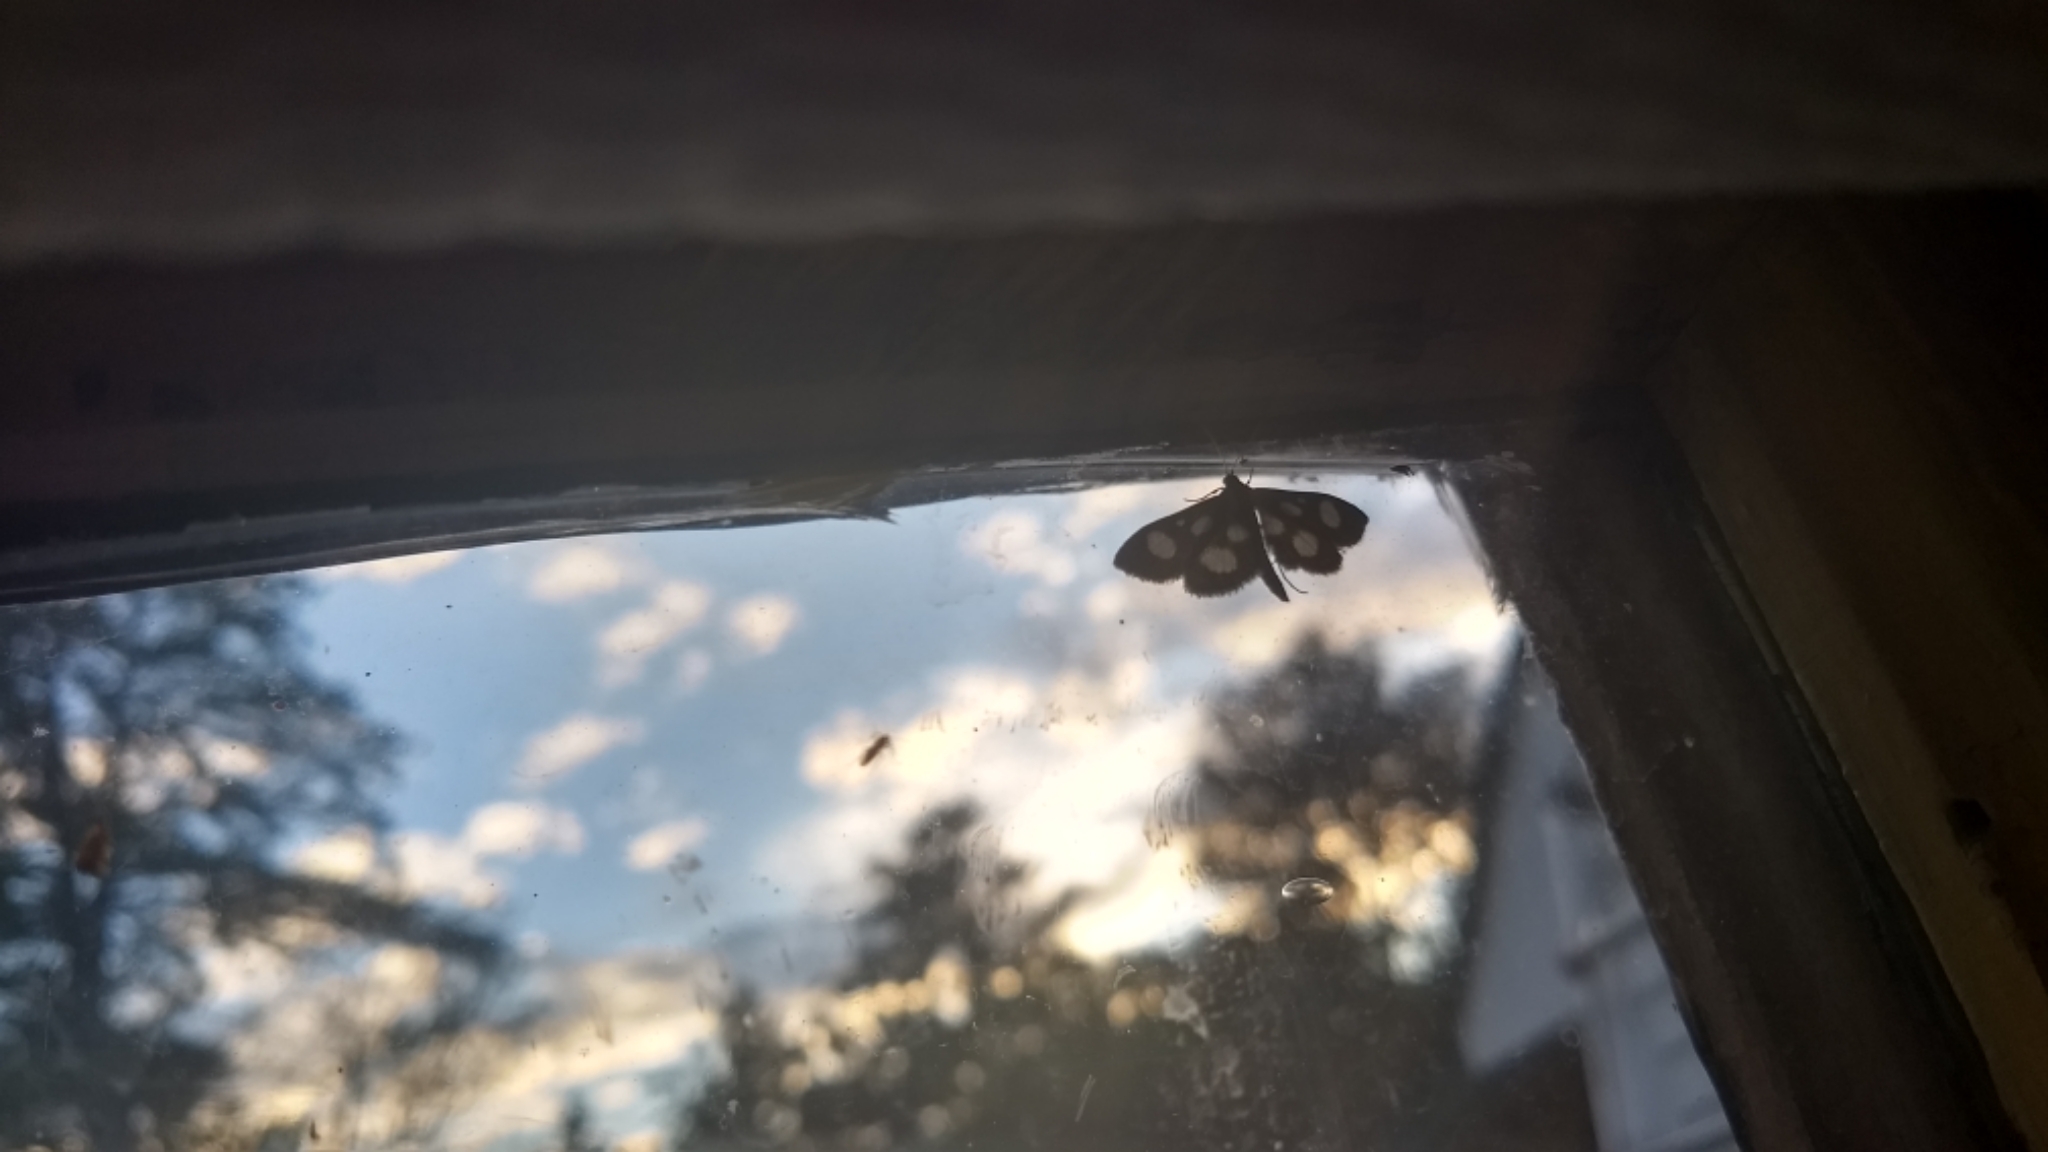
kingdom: Animalia
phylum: Arthropoda
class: Insecta
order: Lepidoptera
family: Crambidae
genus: Anania
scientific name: Anania funebris
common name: White-spotted sable moth
